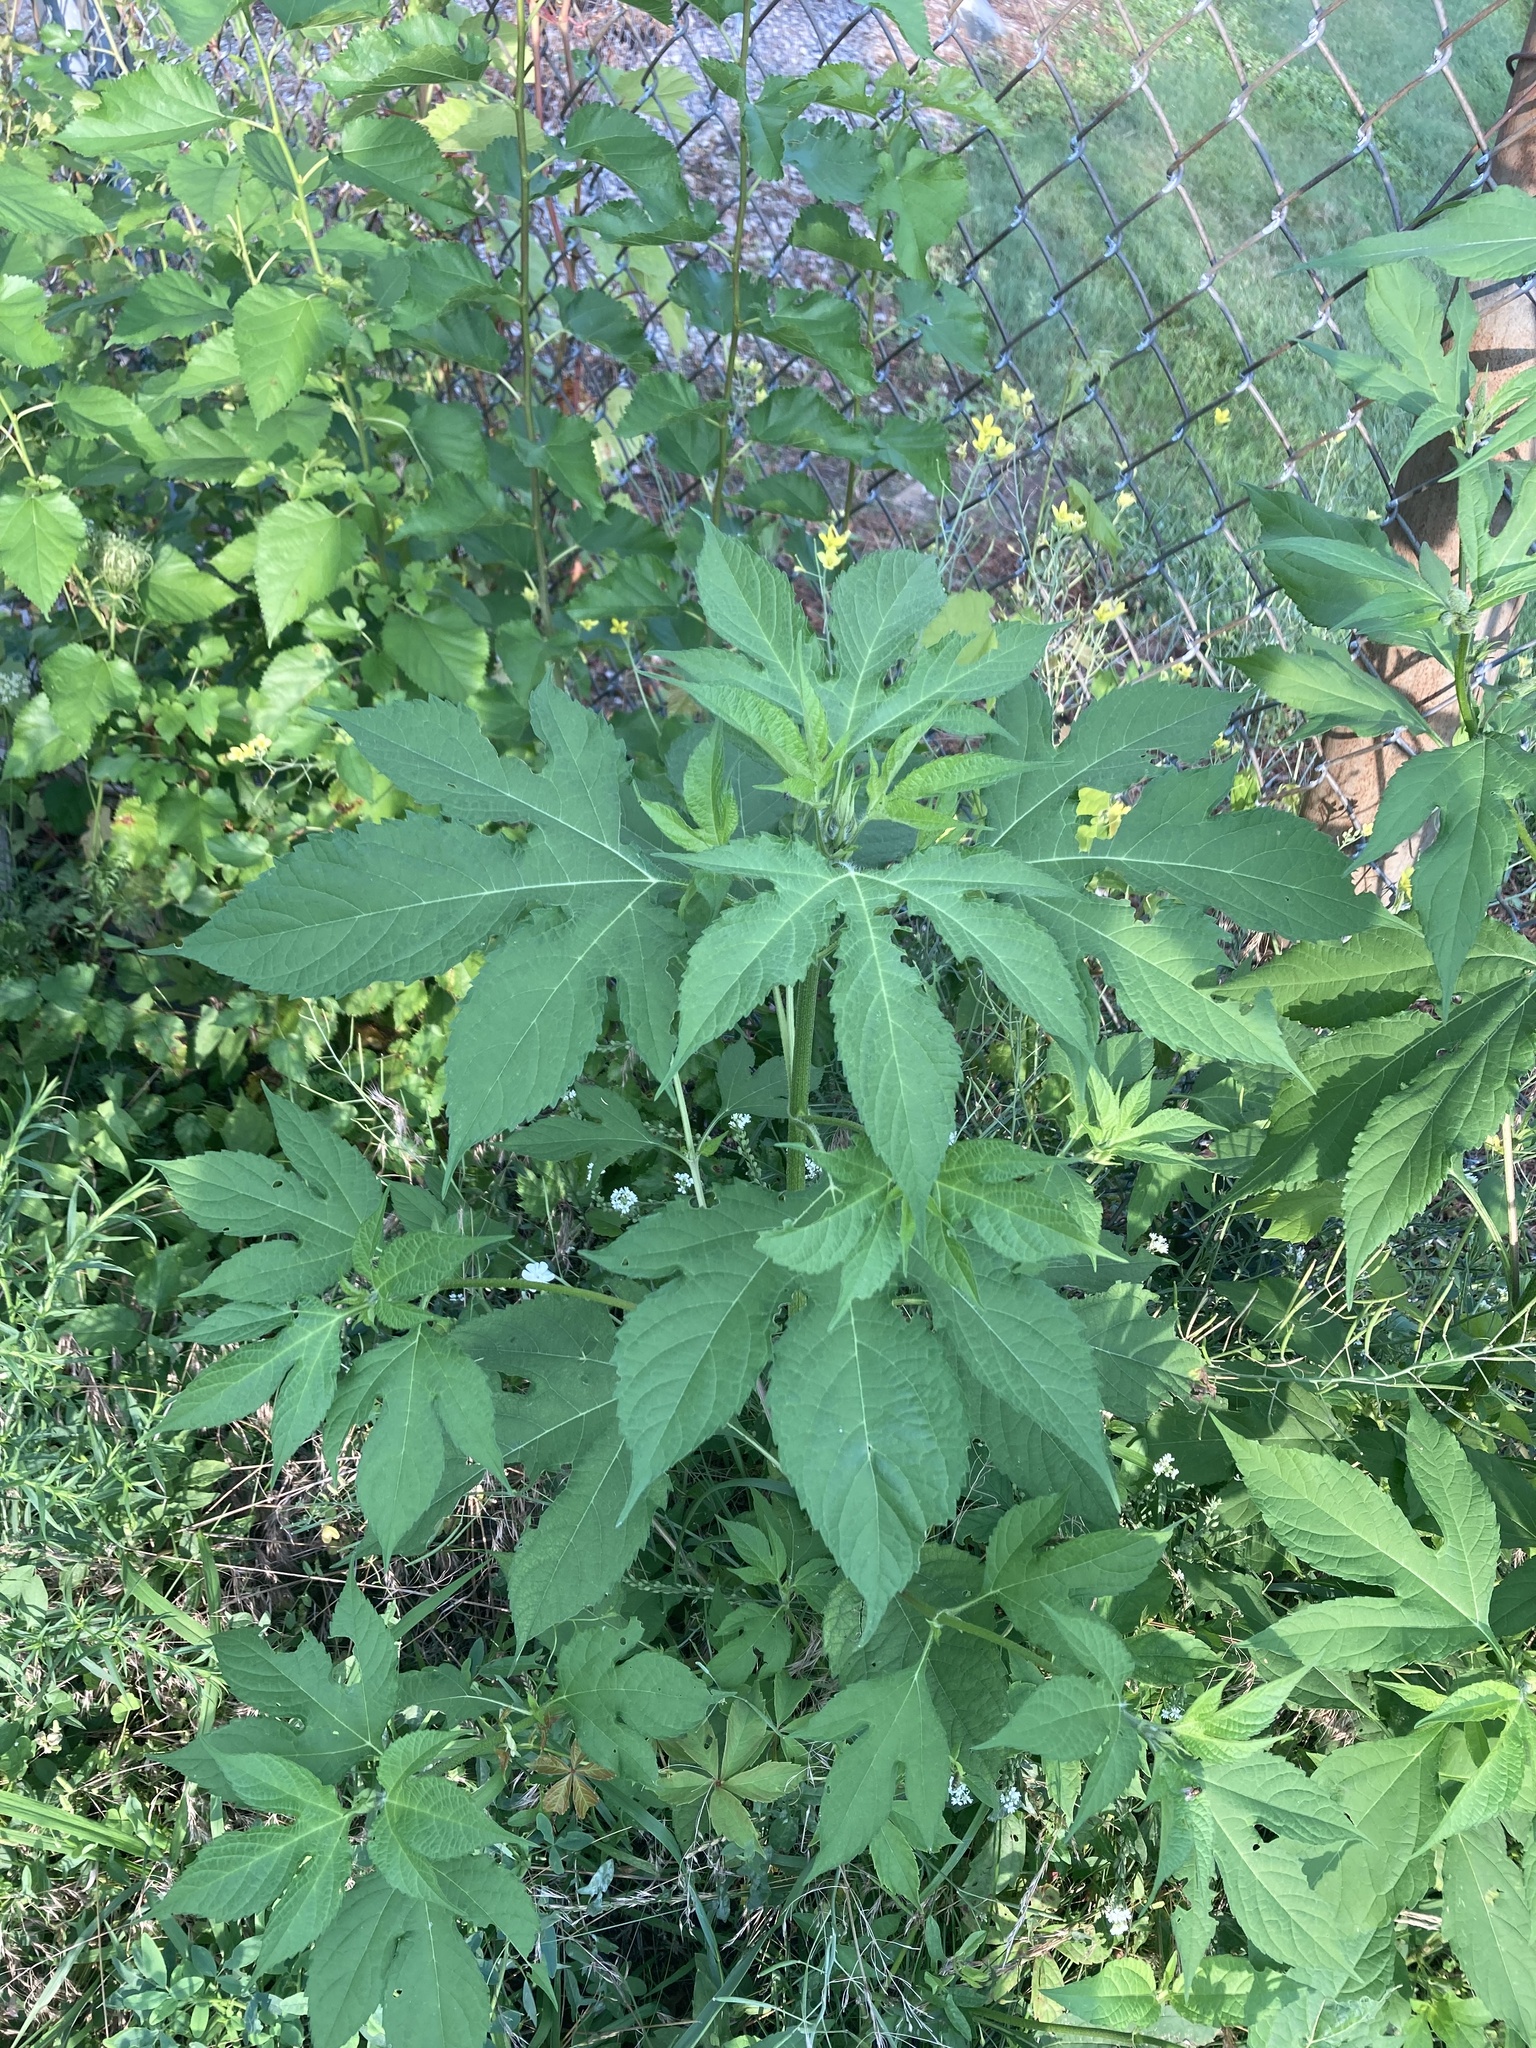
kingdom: Plantae
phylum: Tracheophyta
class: Magnoliopsida
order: Asterales
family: Asteraceae
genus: Ambrosia
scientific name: Ambrosia trifida
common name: Giant ragweed
